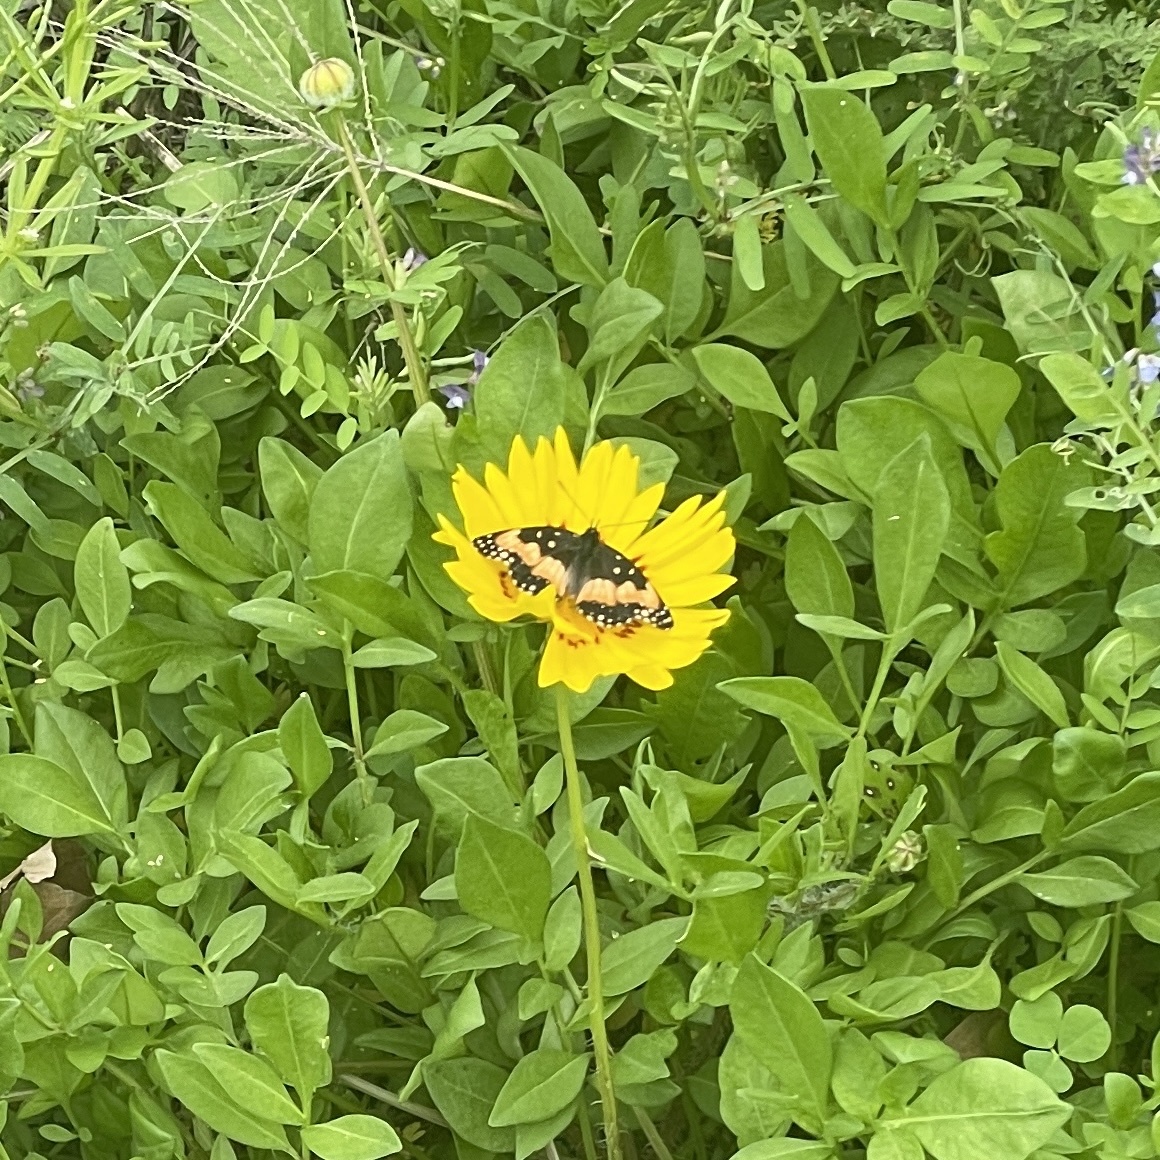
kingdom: Animalia
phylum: Arthropoda
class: Insecta
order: Lepidoptera
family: Nymphalidae
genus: Chlosyne
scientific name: Chlosyne lacinia
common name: Bordered patch
